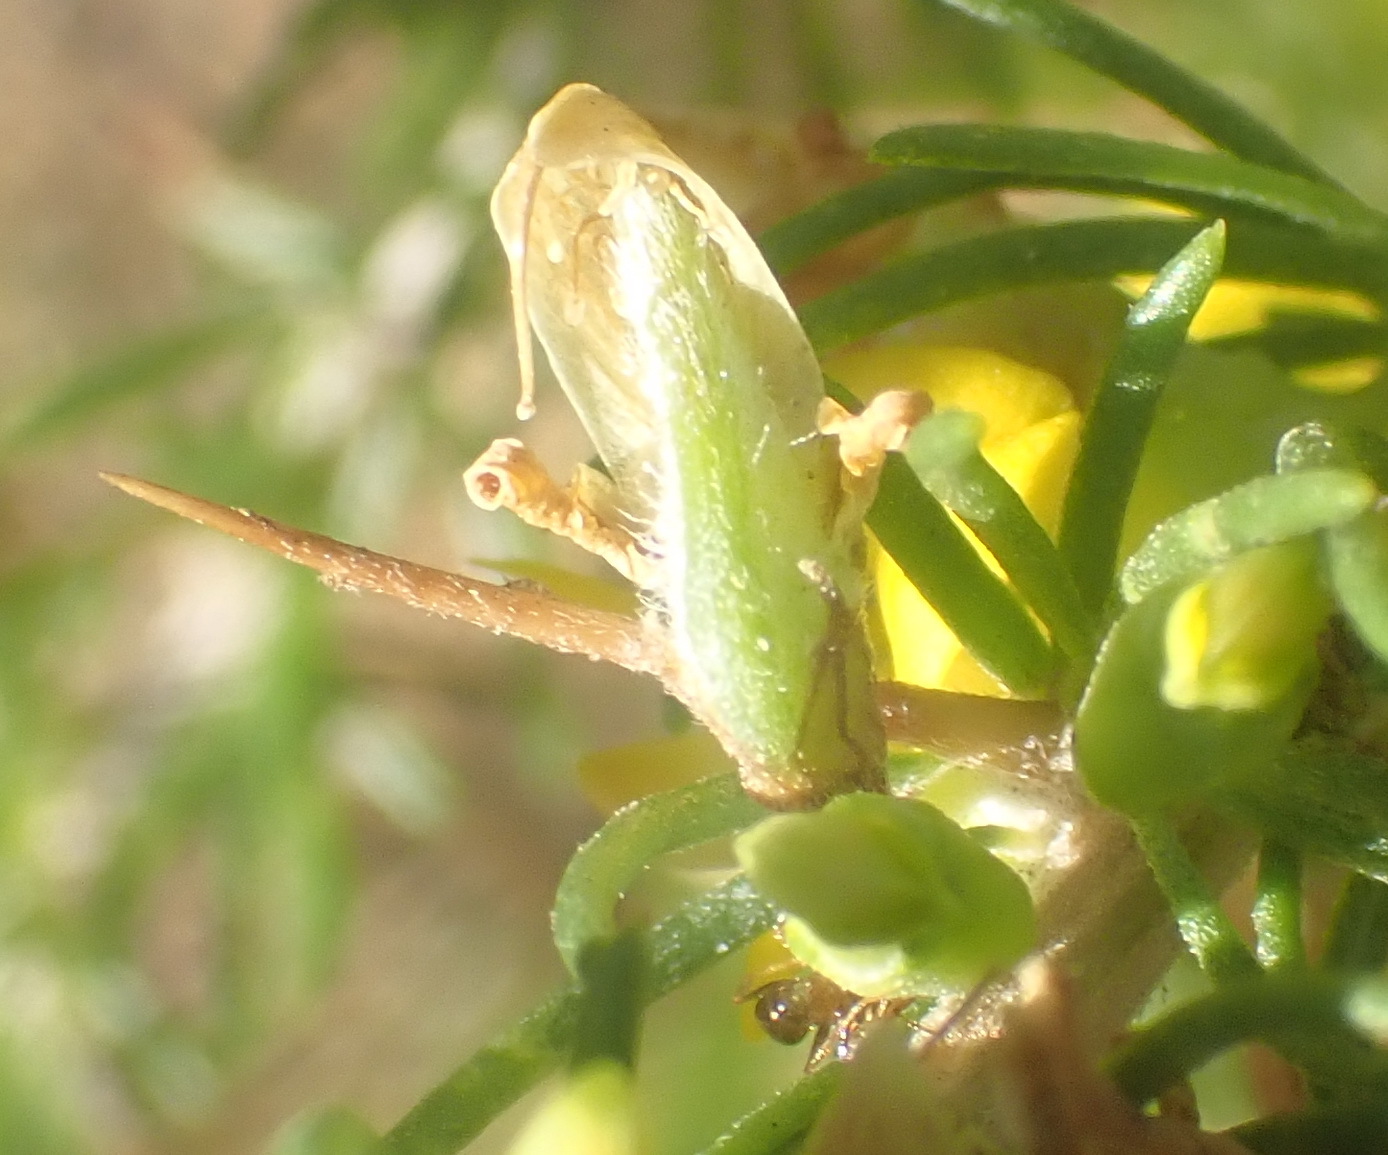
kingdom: Plantae
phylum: Tracheophyta
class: Magnoliopsida
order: Fabales
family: Fabaceae
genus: Aspalathus
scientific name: Aspalathus spinosa
